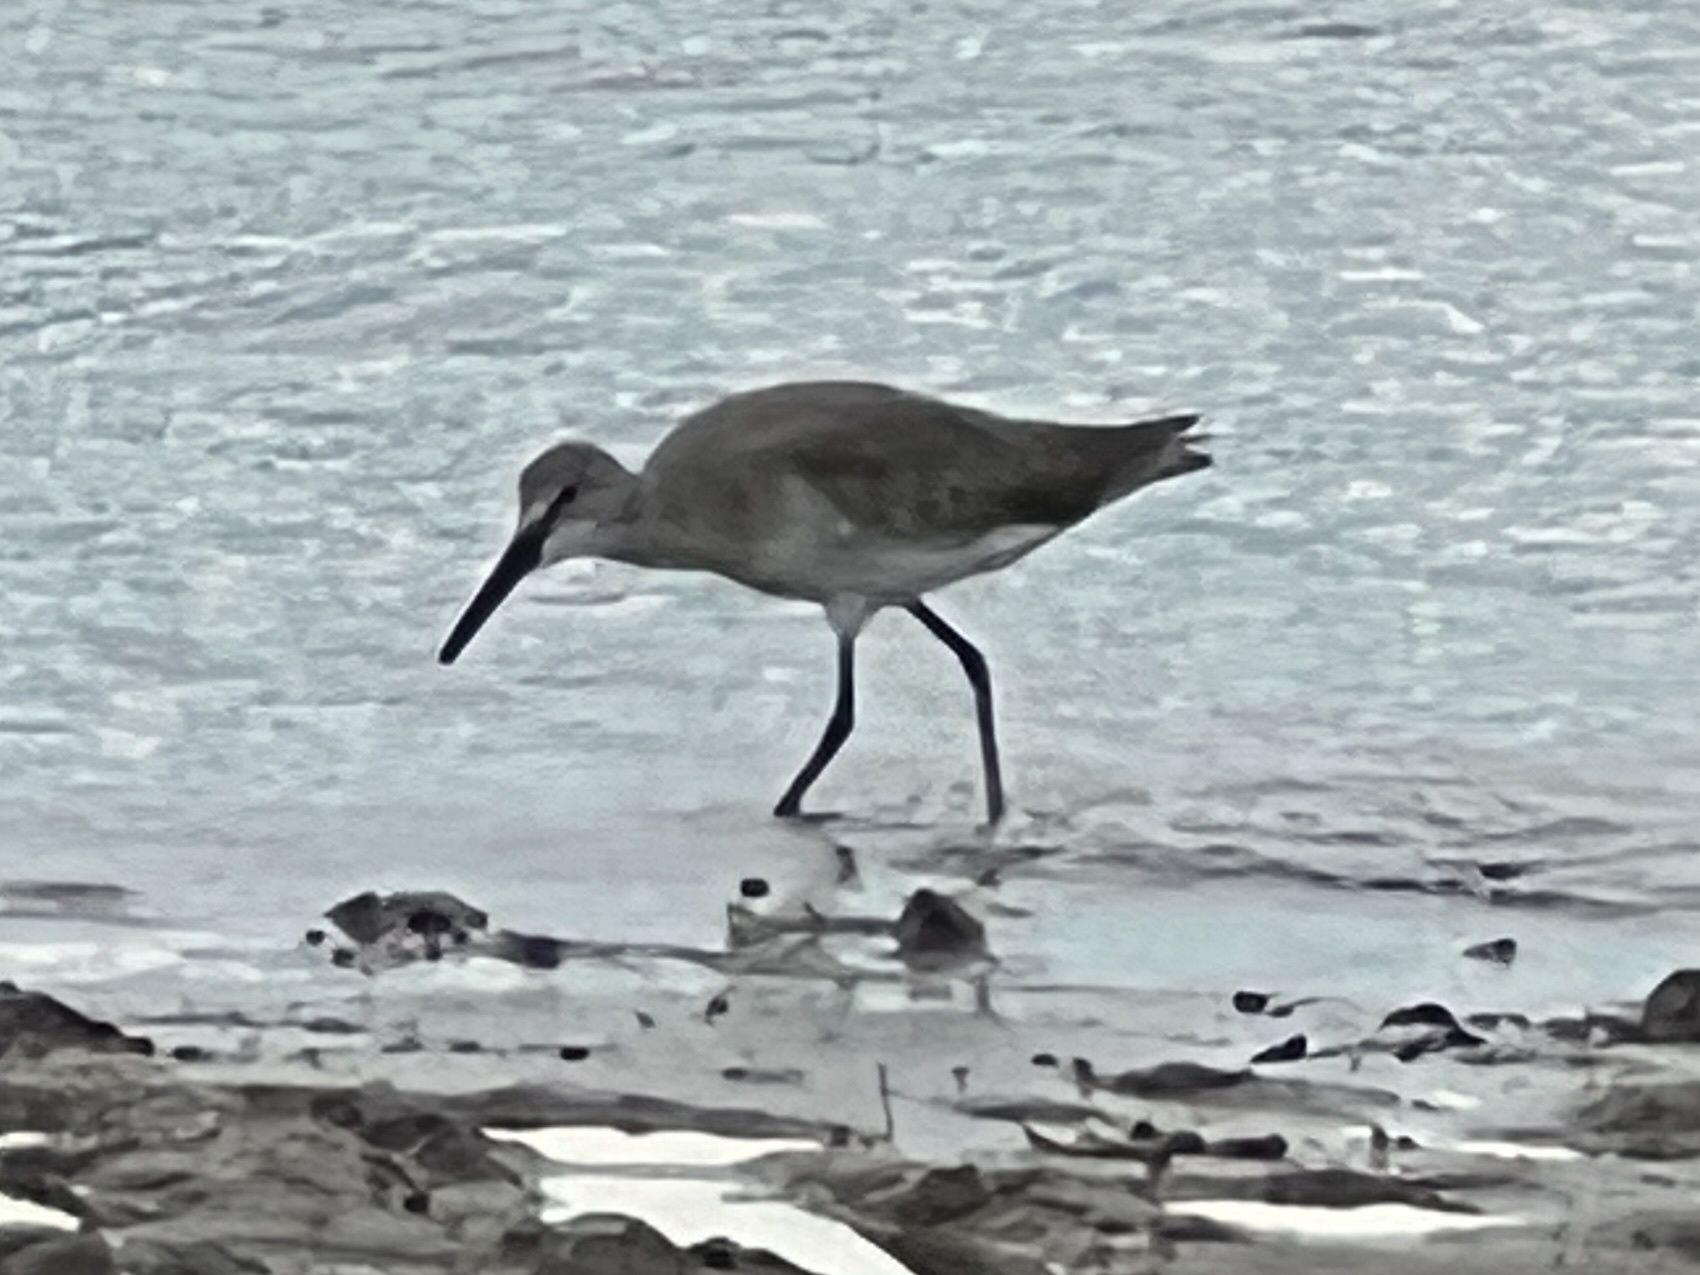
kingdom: Animalia
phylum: Chordata
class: Aves
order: Charadriiformes
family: Scolopacidae
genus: Tringa
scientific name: Tringa semipalmata
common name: Willet
